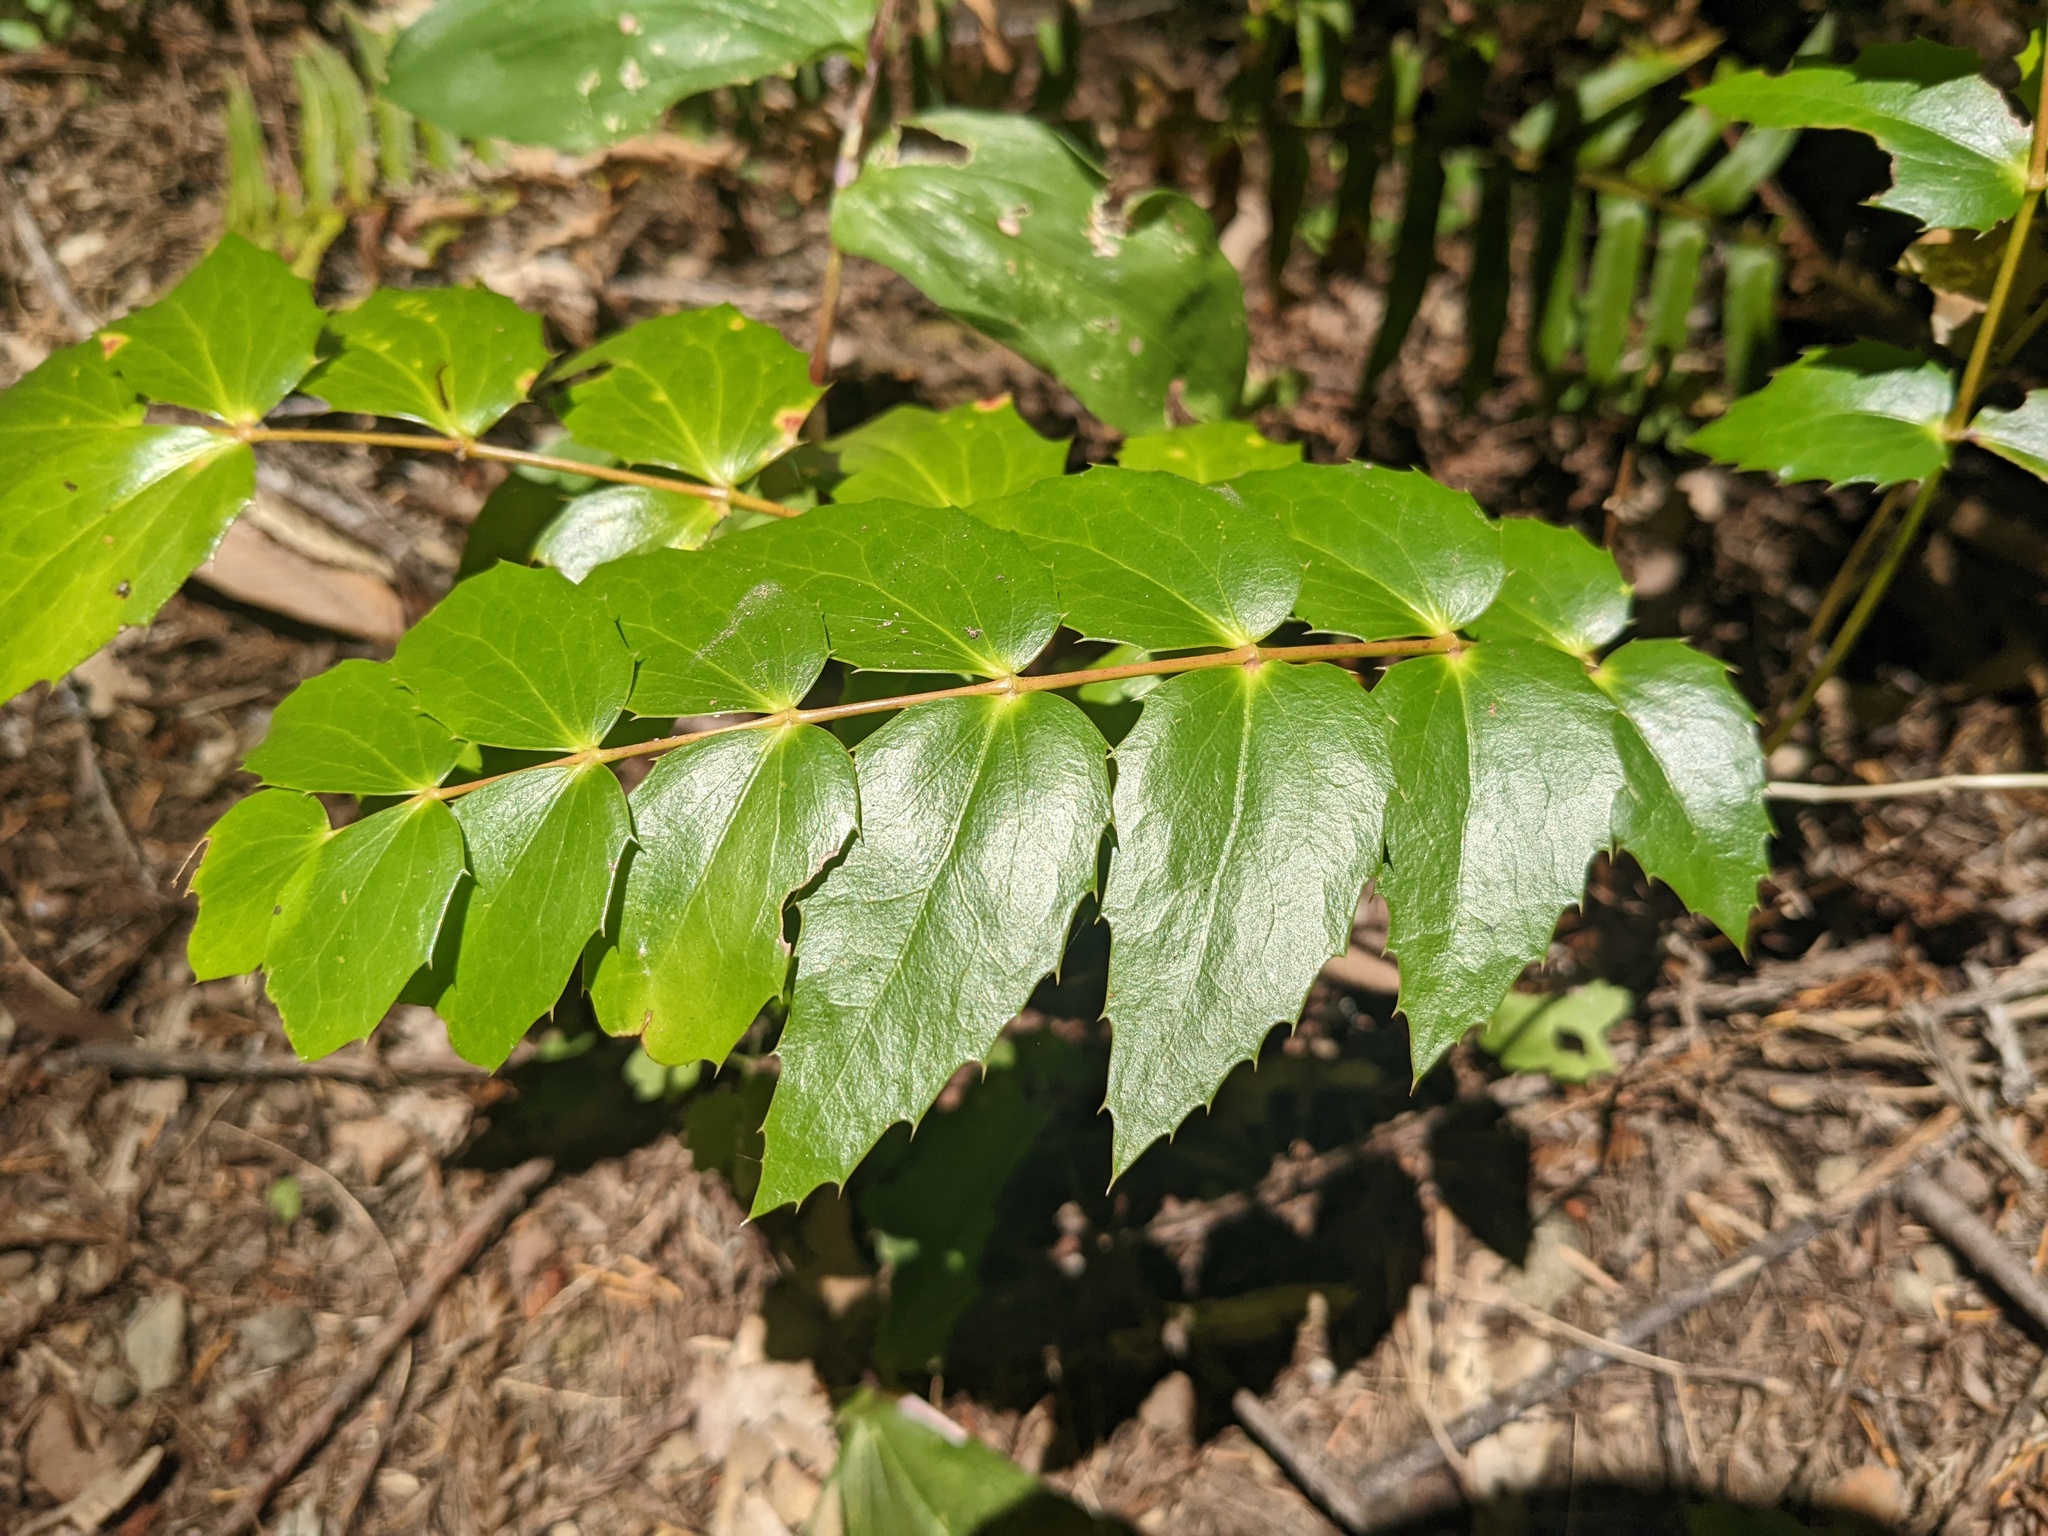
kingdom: Plantae
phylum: Tracheophyta
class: Magnoliopsida
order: Ranunculales
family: Berberidaceae
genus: Mahonia
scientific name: Mahonia nervosa
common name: Cascade oregon-grape
